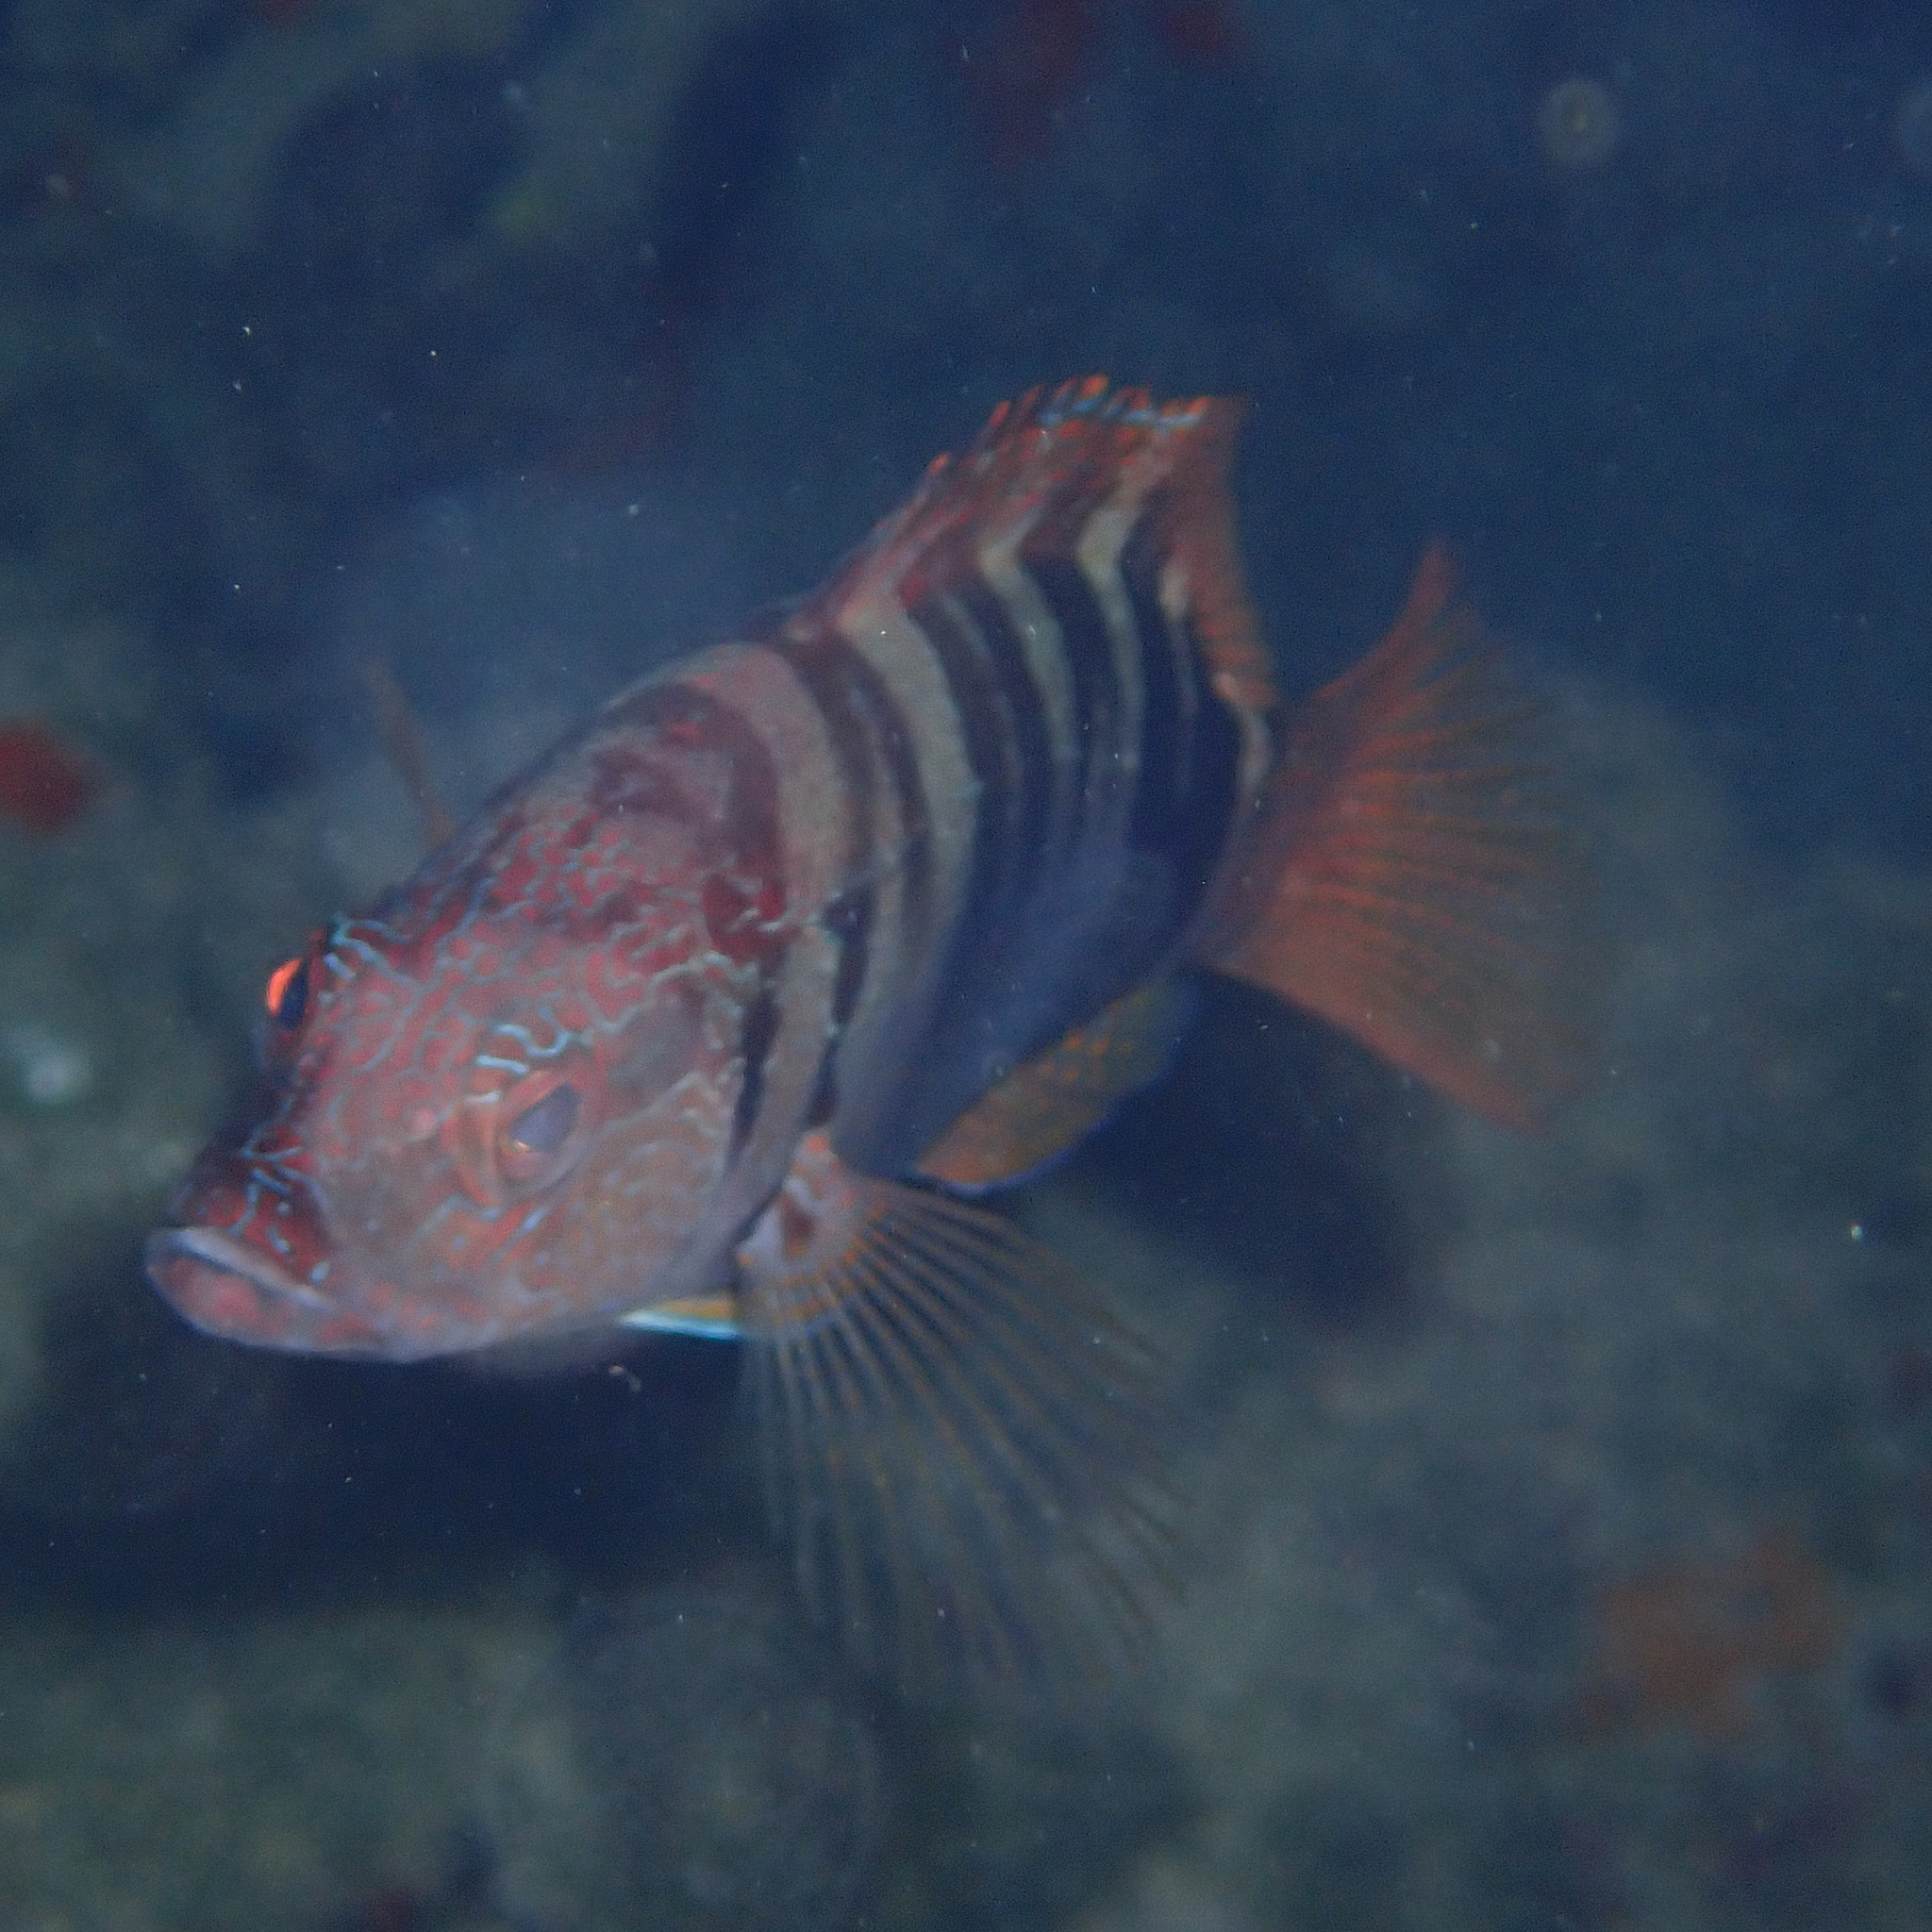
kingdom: Animalia
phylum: Chordata
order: Perciformes
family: Serranidae
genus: Serranus
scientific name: Serranus scriba
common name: Painted comber
